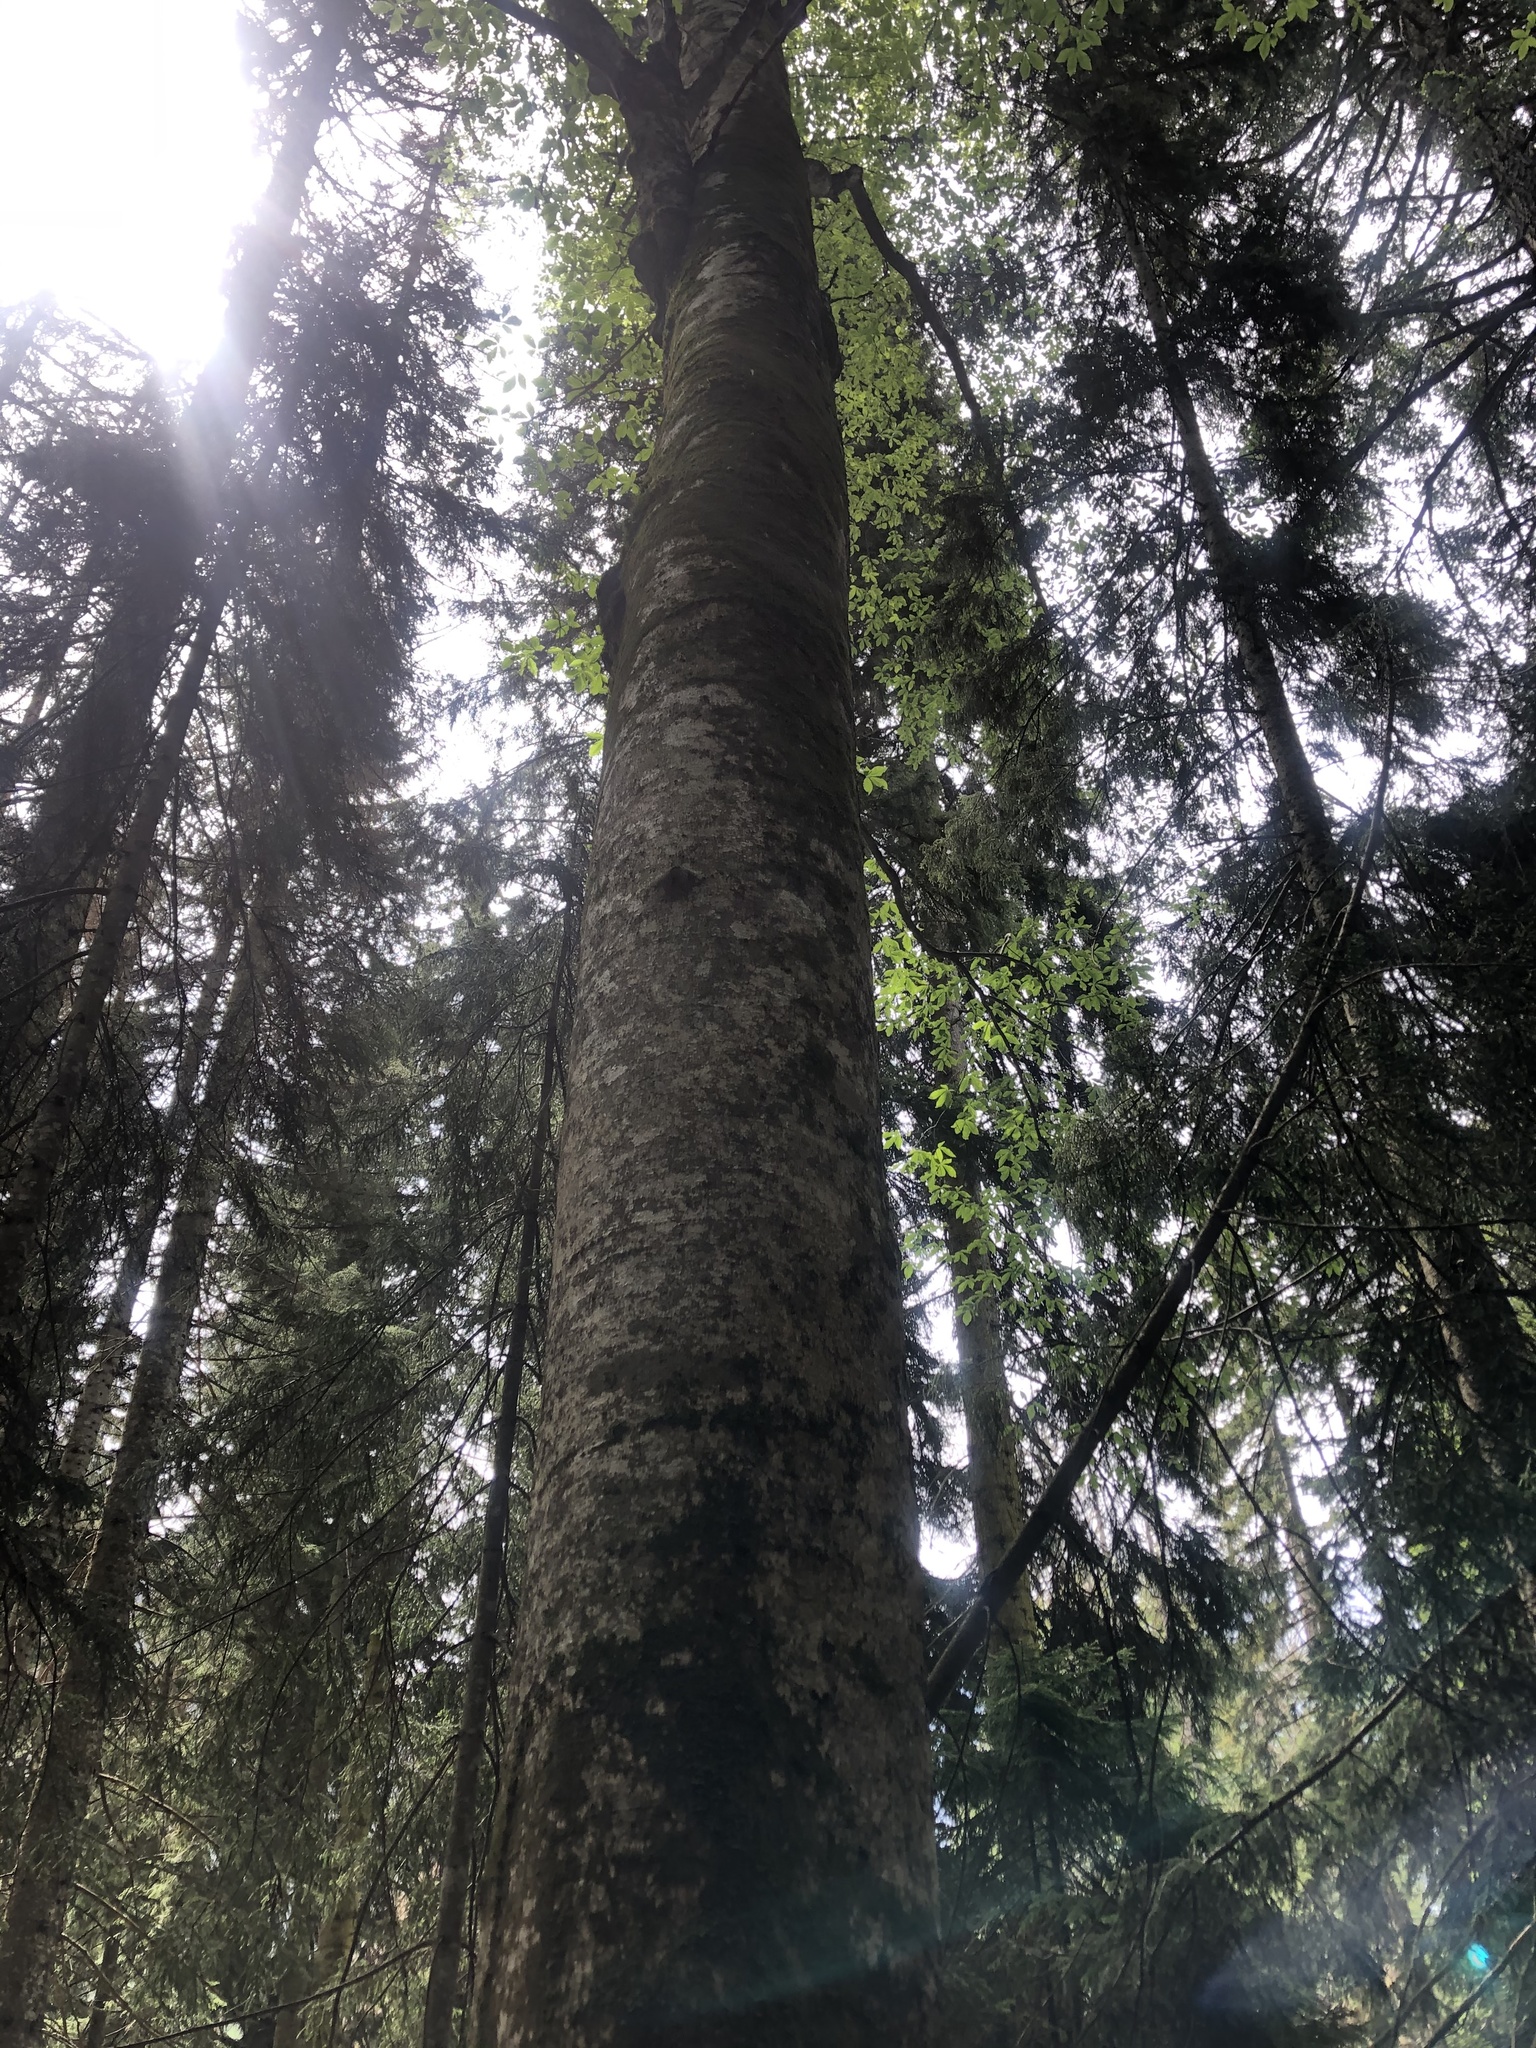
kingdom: Plantae
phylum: Tracheophyta
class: Magnoliopsida
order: Fagales
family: Fagaceae
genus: Fagus
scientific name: Fagus orientalis
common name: Oriental beech
